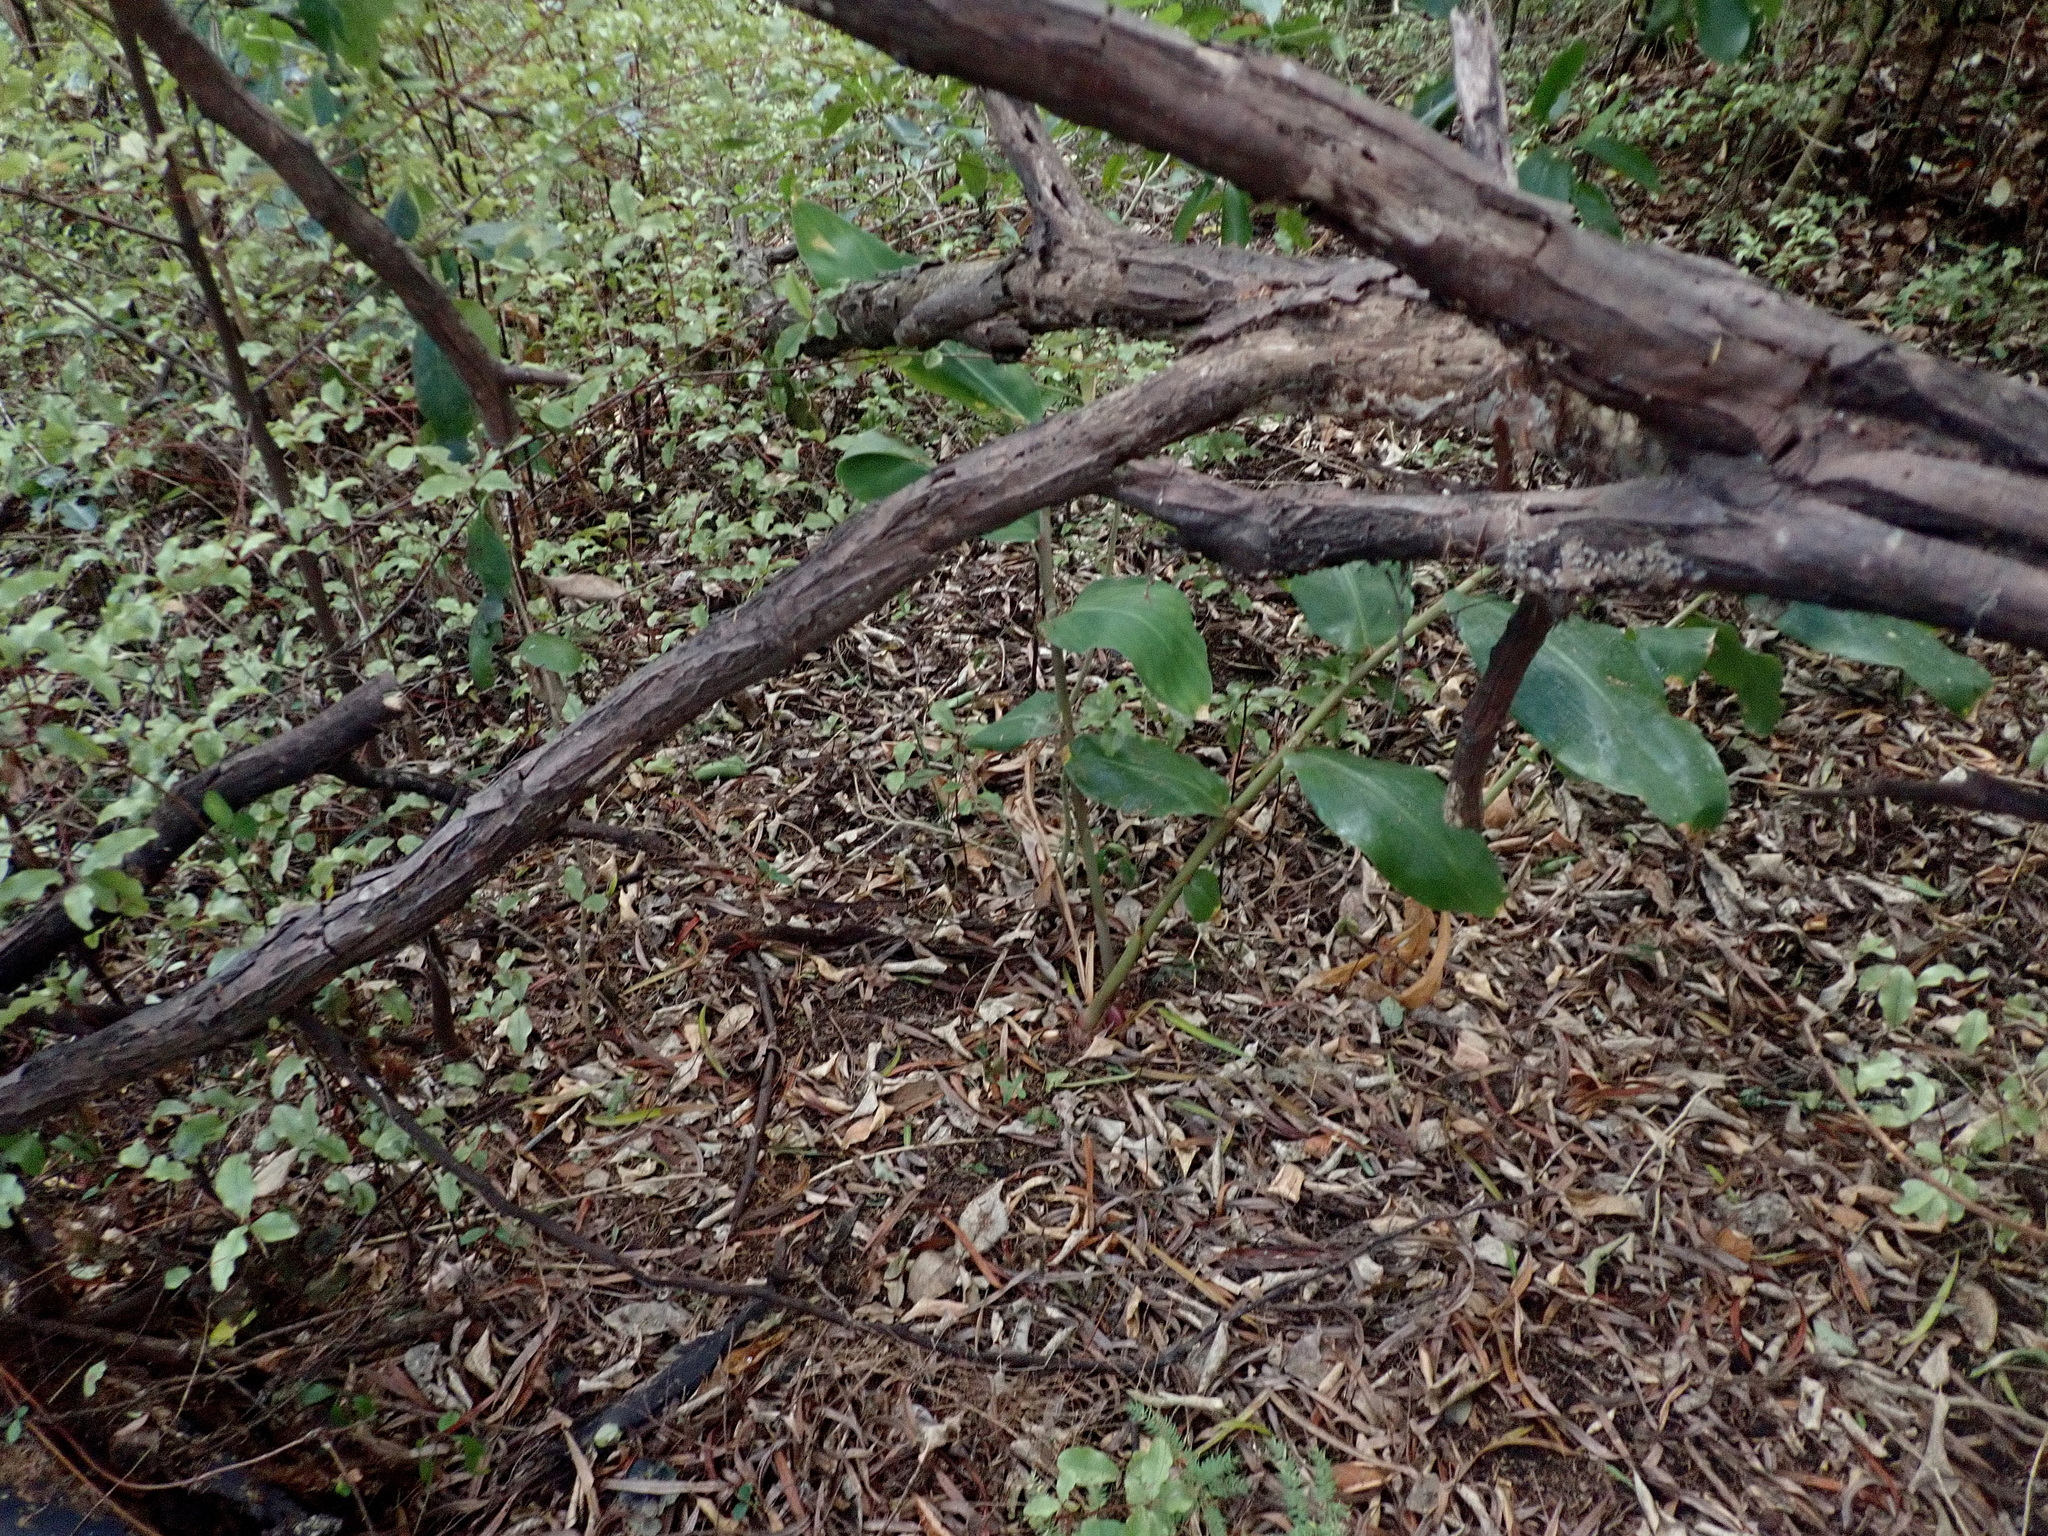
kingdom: Plantae
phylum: Tracheophyta
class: Liliopsida
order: Zingiberales
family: Zingiberaceae
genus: Hedychium
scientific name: Hedychium gardnerianum
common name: Himalayan ginger
